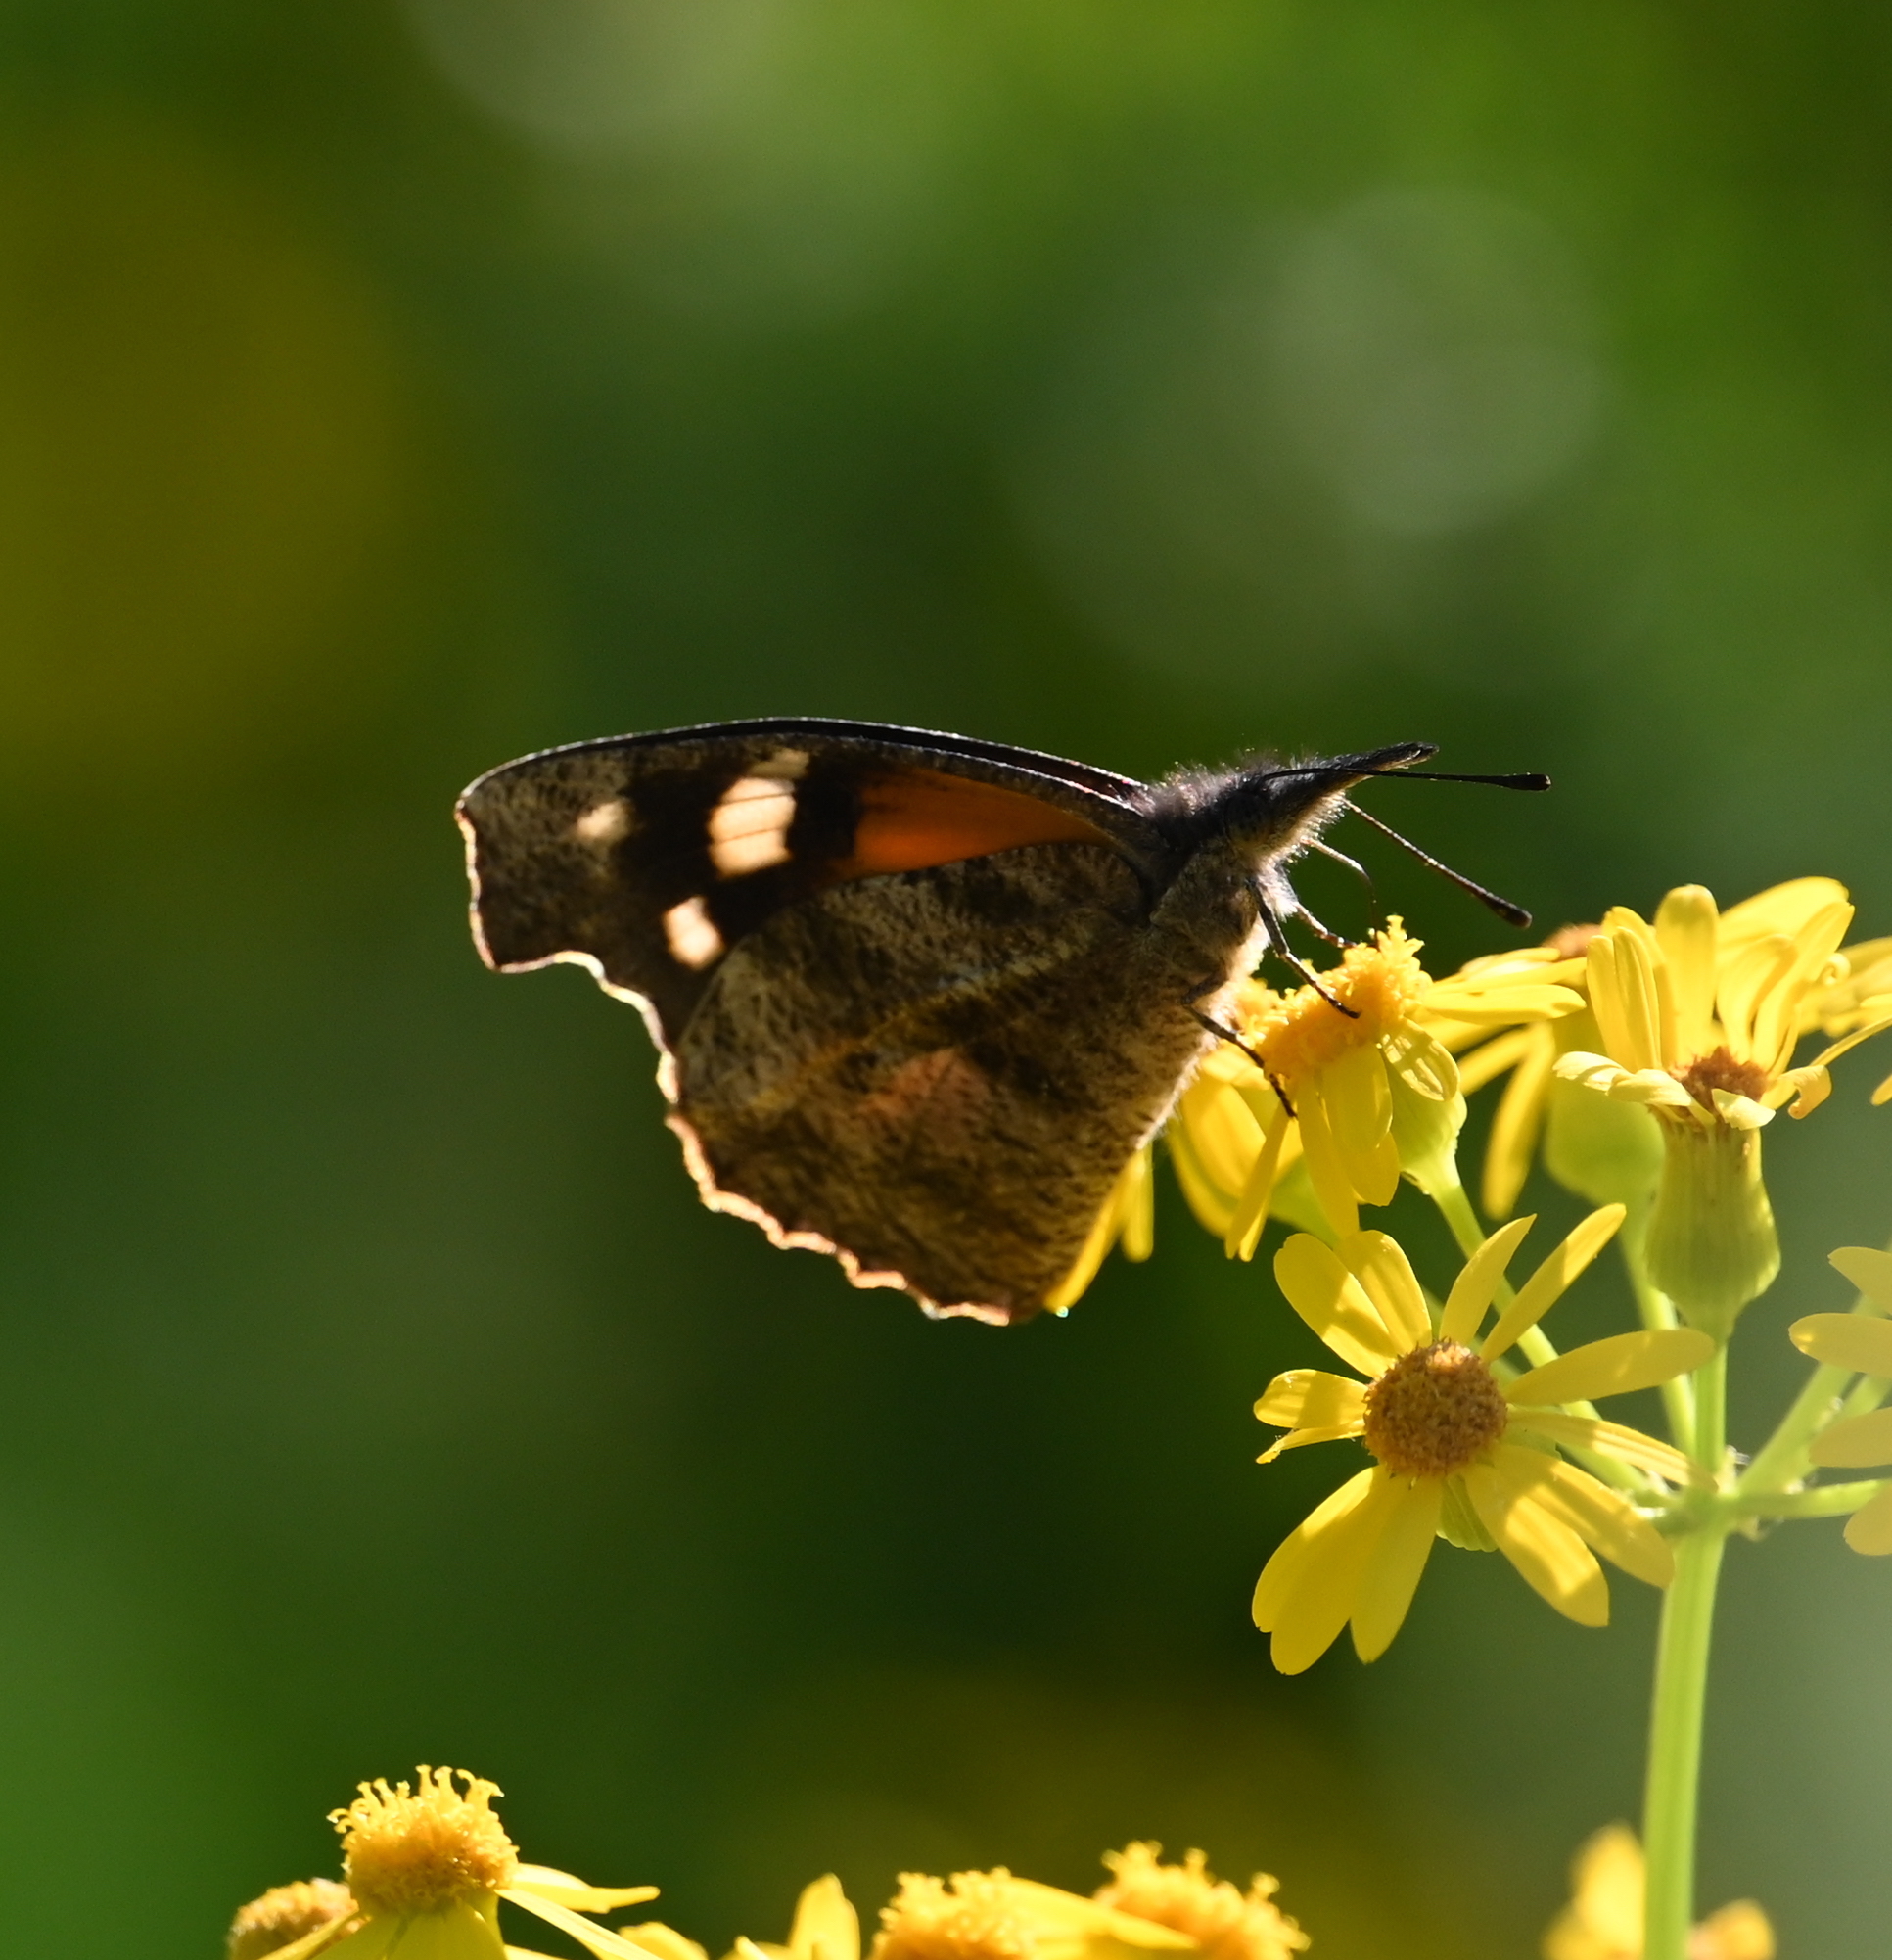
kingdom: Animalia
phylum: Arthropoda
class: Insecta
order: Lepidoptera
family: Nymphalidae
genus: Libytheana
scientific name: Libytheana carinenta
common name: American snout
